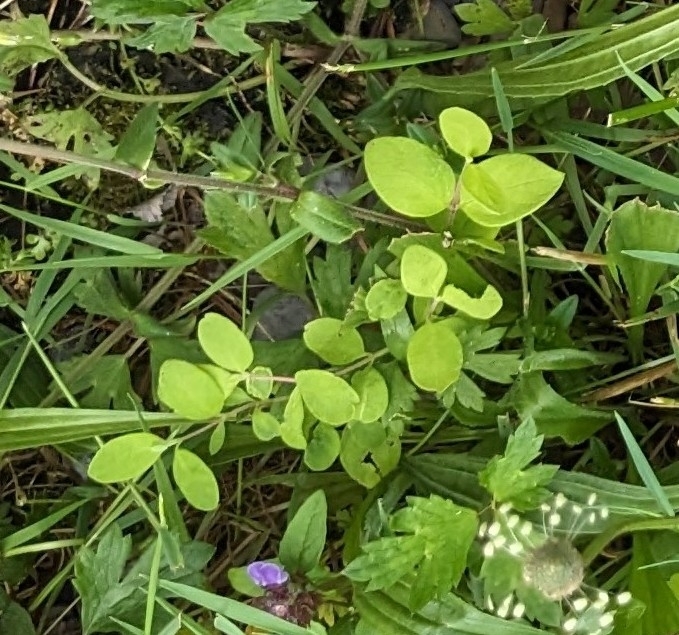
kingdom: Plantae
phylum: Tracheophyta
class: Magnoliopsida
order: Dipsacales
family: Caprifoliaceae
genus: Lonicera
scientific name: Lonicera
